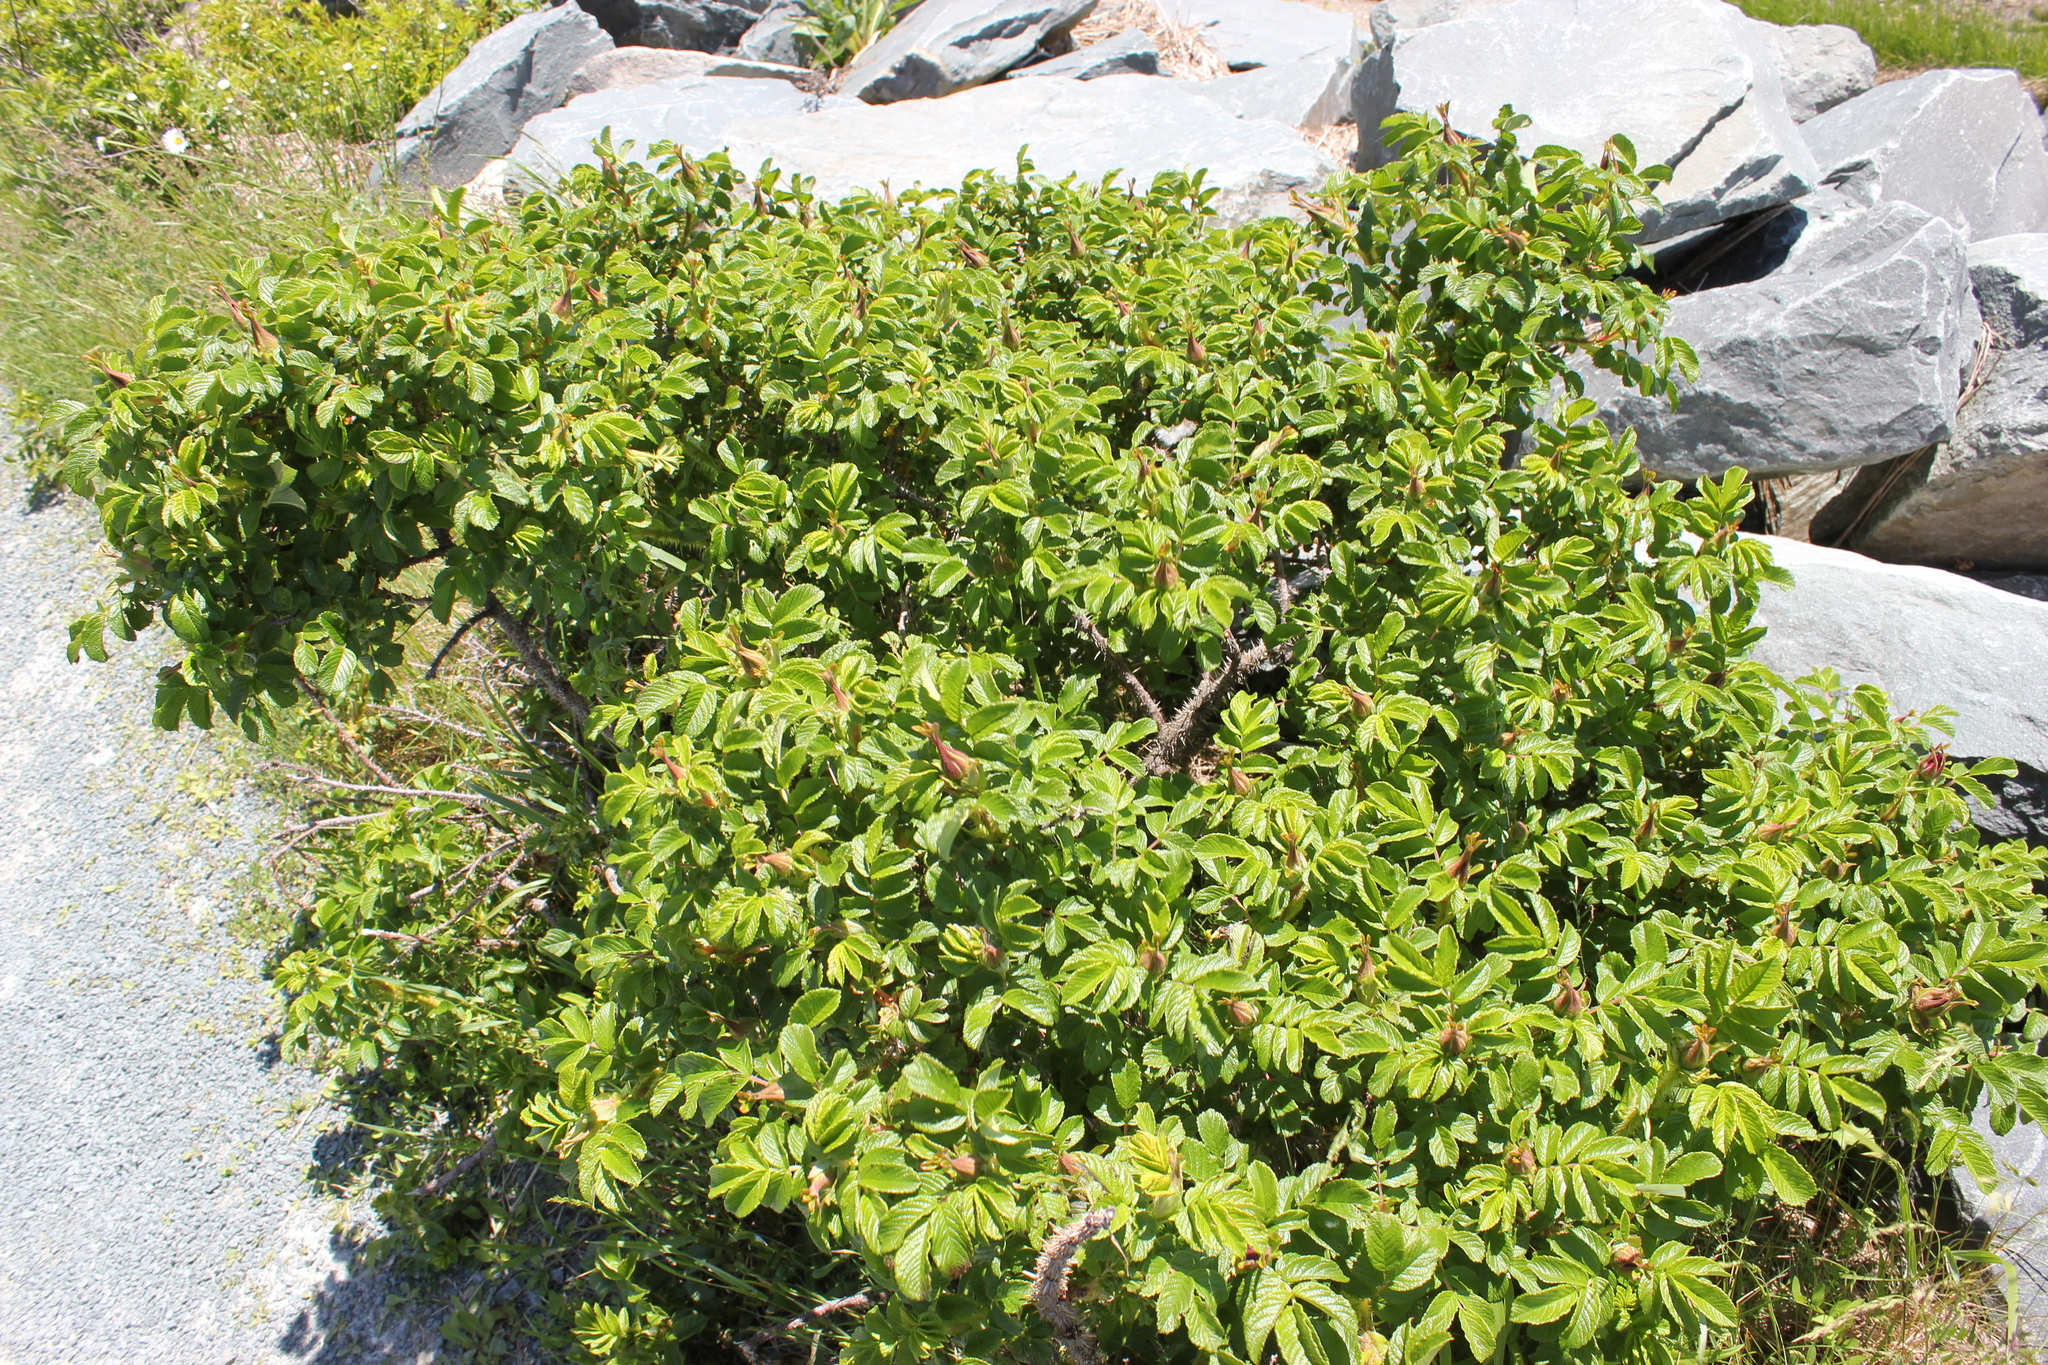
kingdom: Plantae
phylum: Tracheophyta
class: Magnoliopsida
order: Rosales
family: Rosaceae
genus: Rosa
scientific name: Rosa rugosa
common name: Japanese rose
